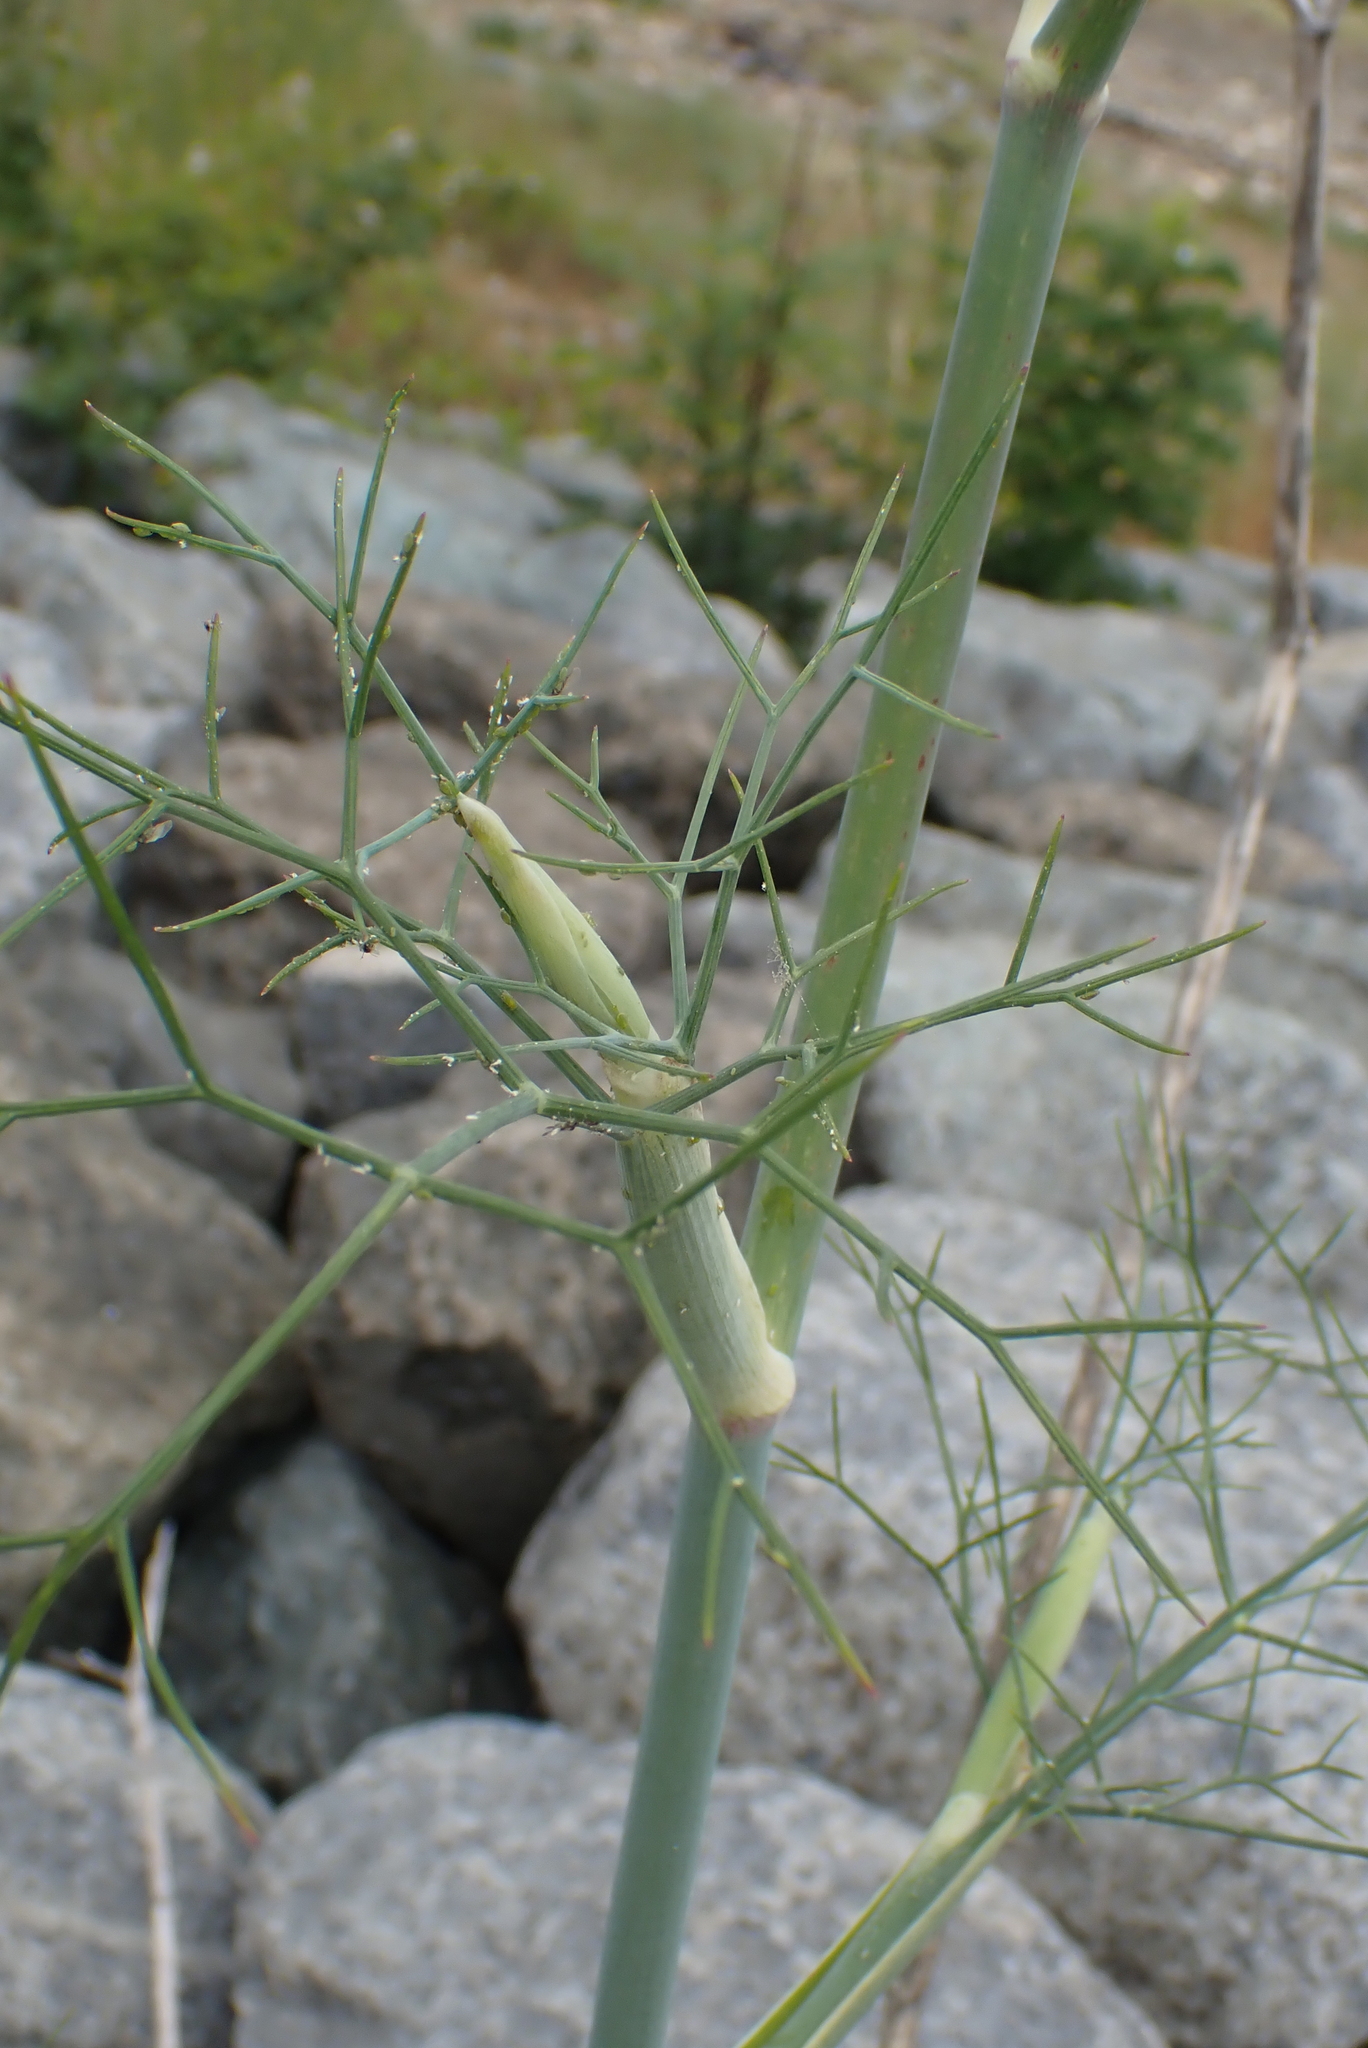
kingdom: Plantae
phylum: Tracheophyta
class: Magnoliopsida
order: Apiales
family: Apiaceae
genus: Foeniculum
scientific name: Foeniculum vulgare
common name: Fennel
